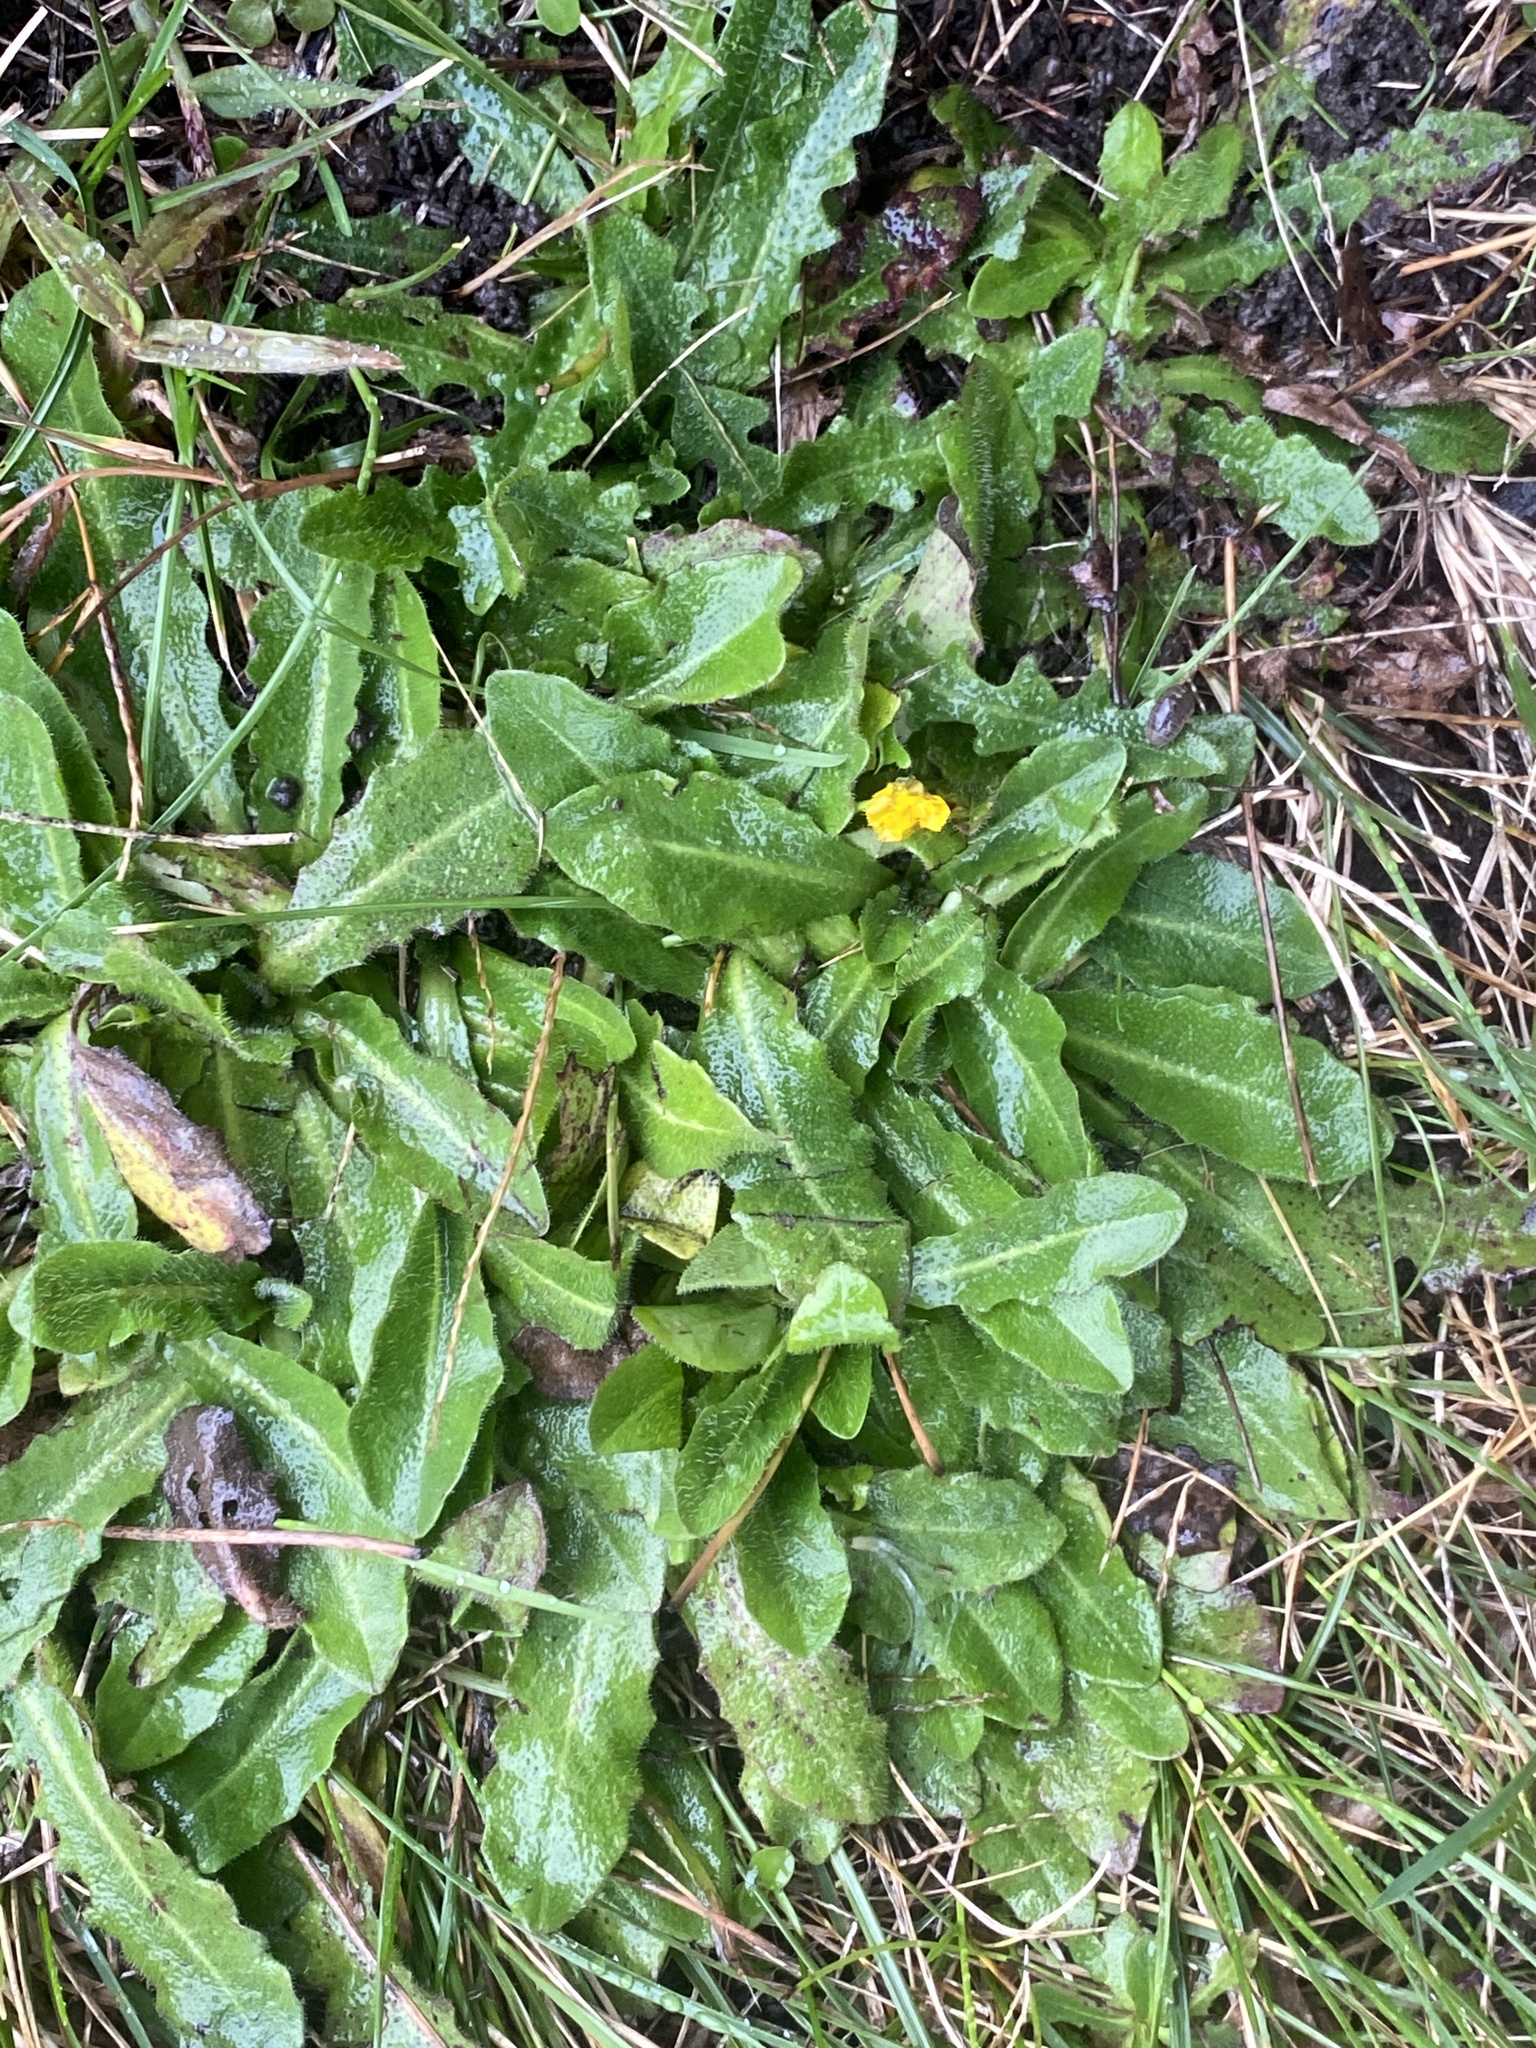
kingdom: Plantae
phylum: Tracheophyta
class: Magnoliopsida
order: Asterales
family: Asteraceae
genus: Hypochaeris
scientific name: Hypochaeris radicata
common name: Flatweed
